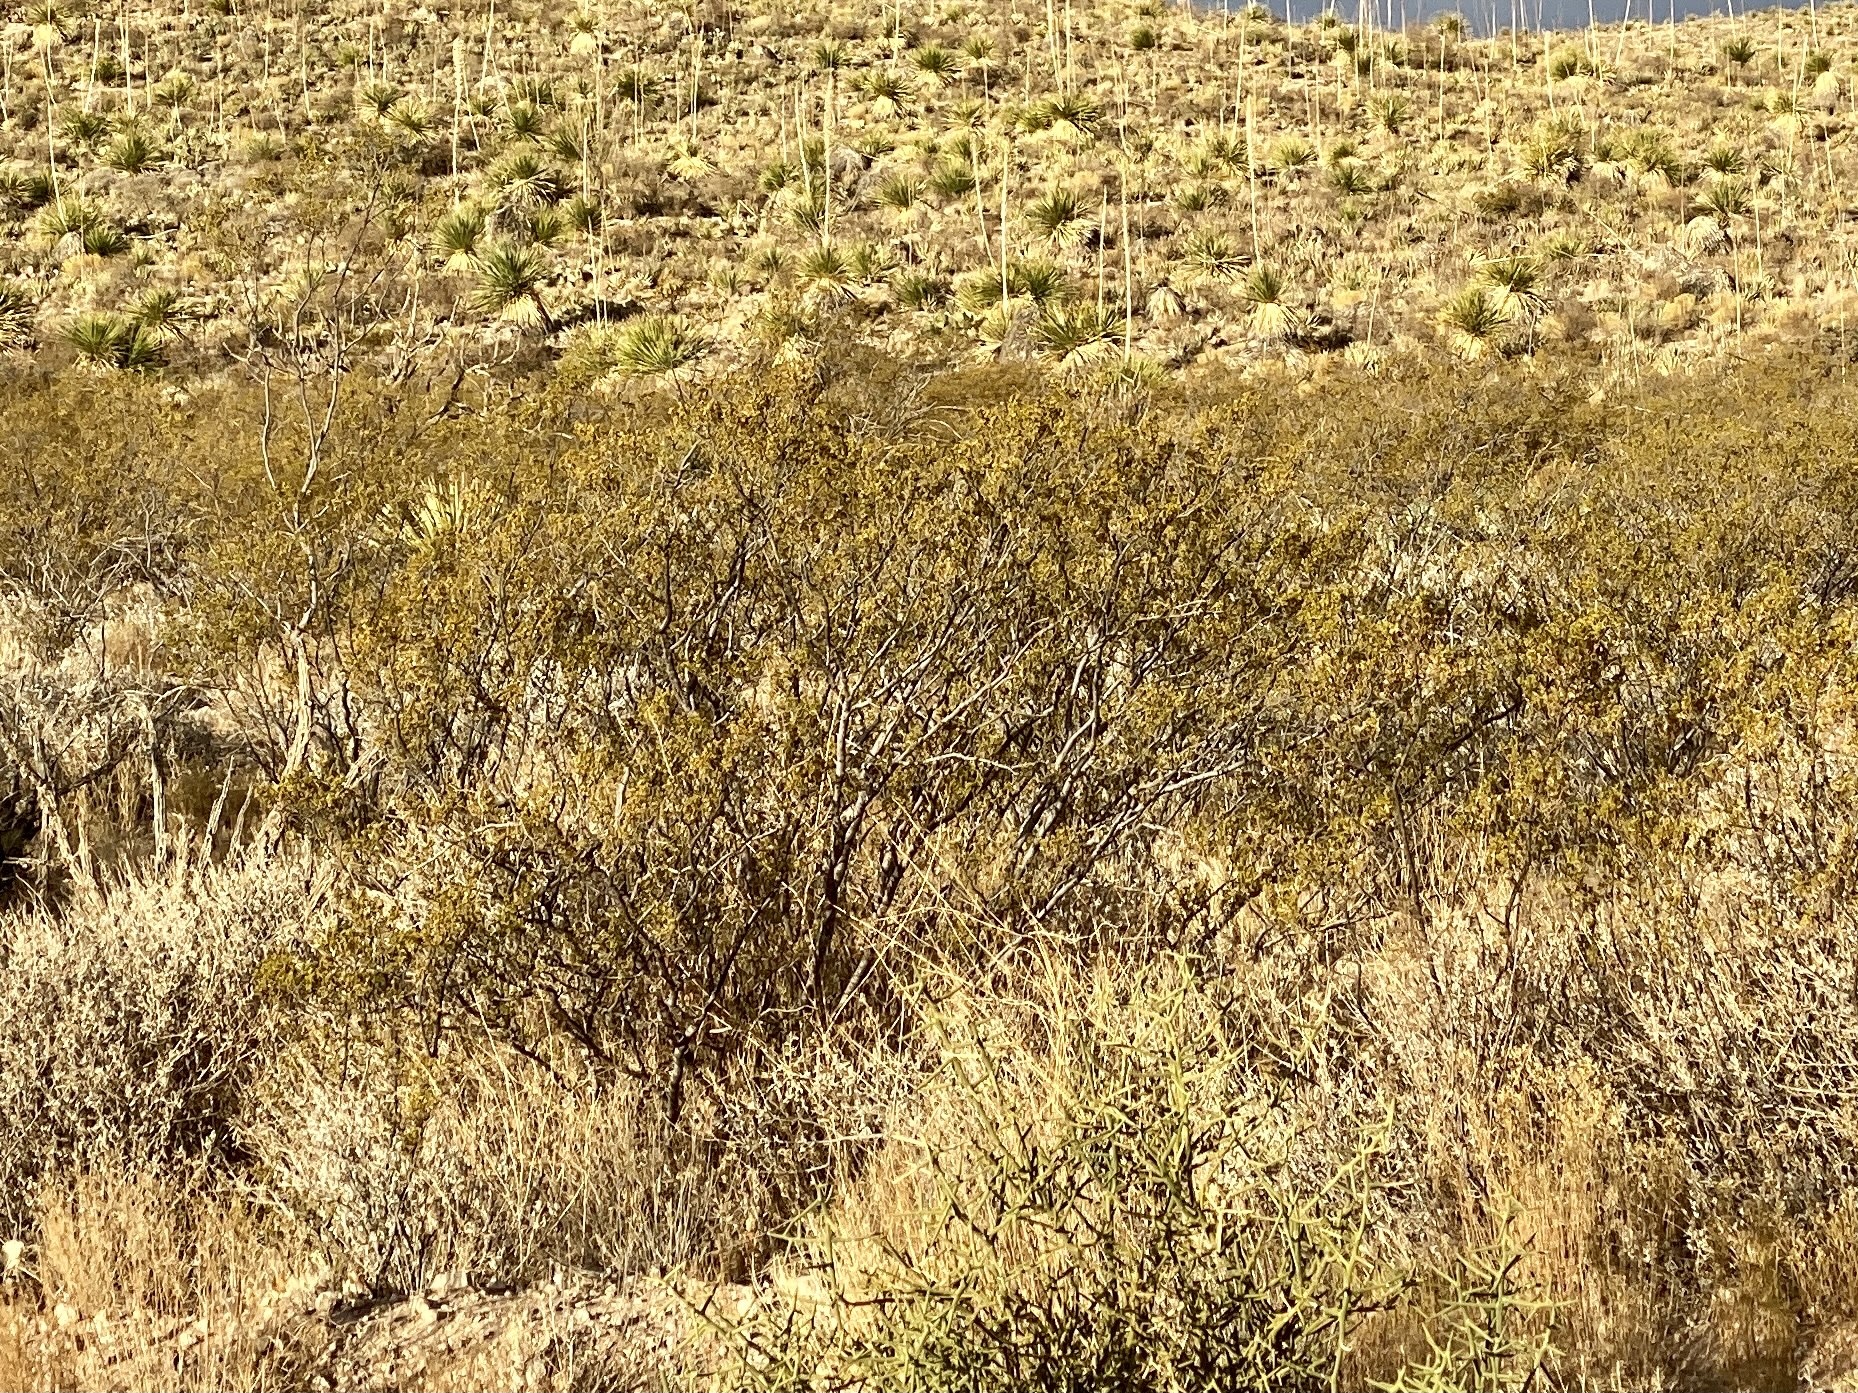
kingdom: Plantae
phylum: Tracheophyta
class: Magnoliopsida
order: Zygophyllales
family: Zygophyllaceae
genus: Larrea
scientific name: Larrea tridentata
